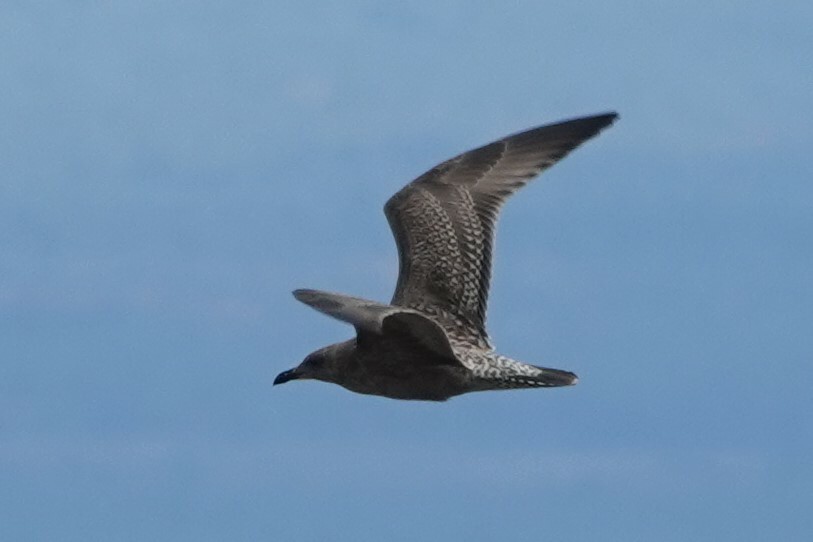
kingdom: Animalia
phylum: Chordata
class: Aves
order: Charadriiformes
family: Laridae
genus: Larus
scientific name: Larus argentatus
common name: Herring gull
